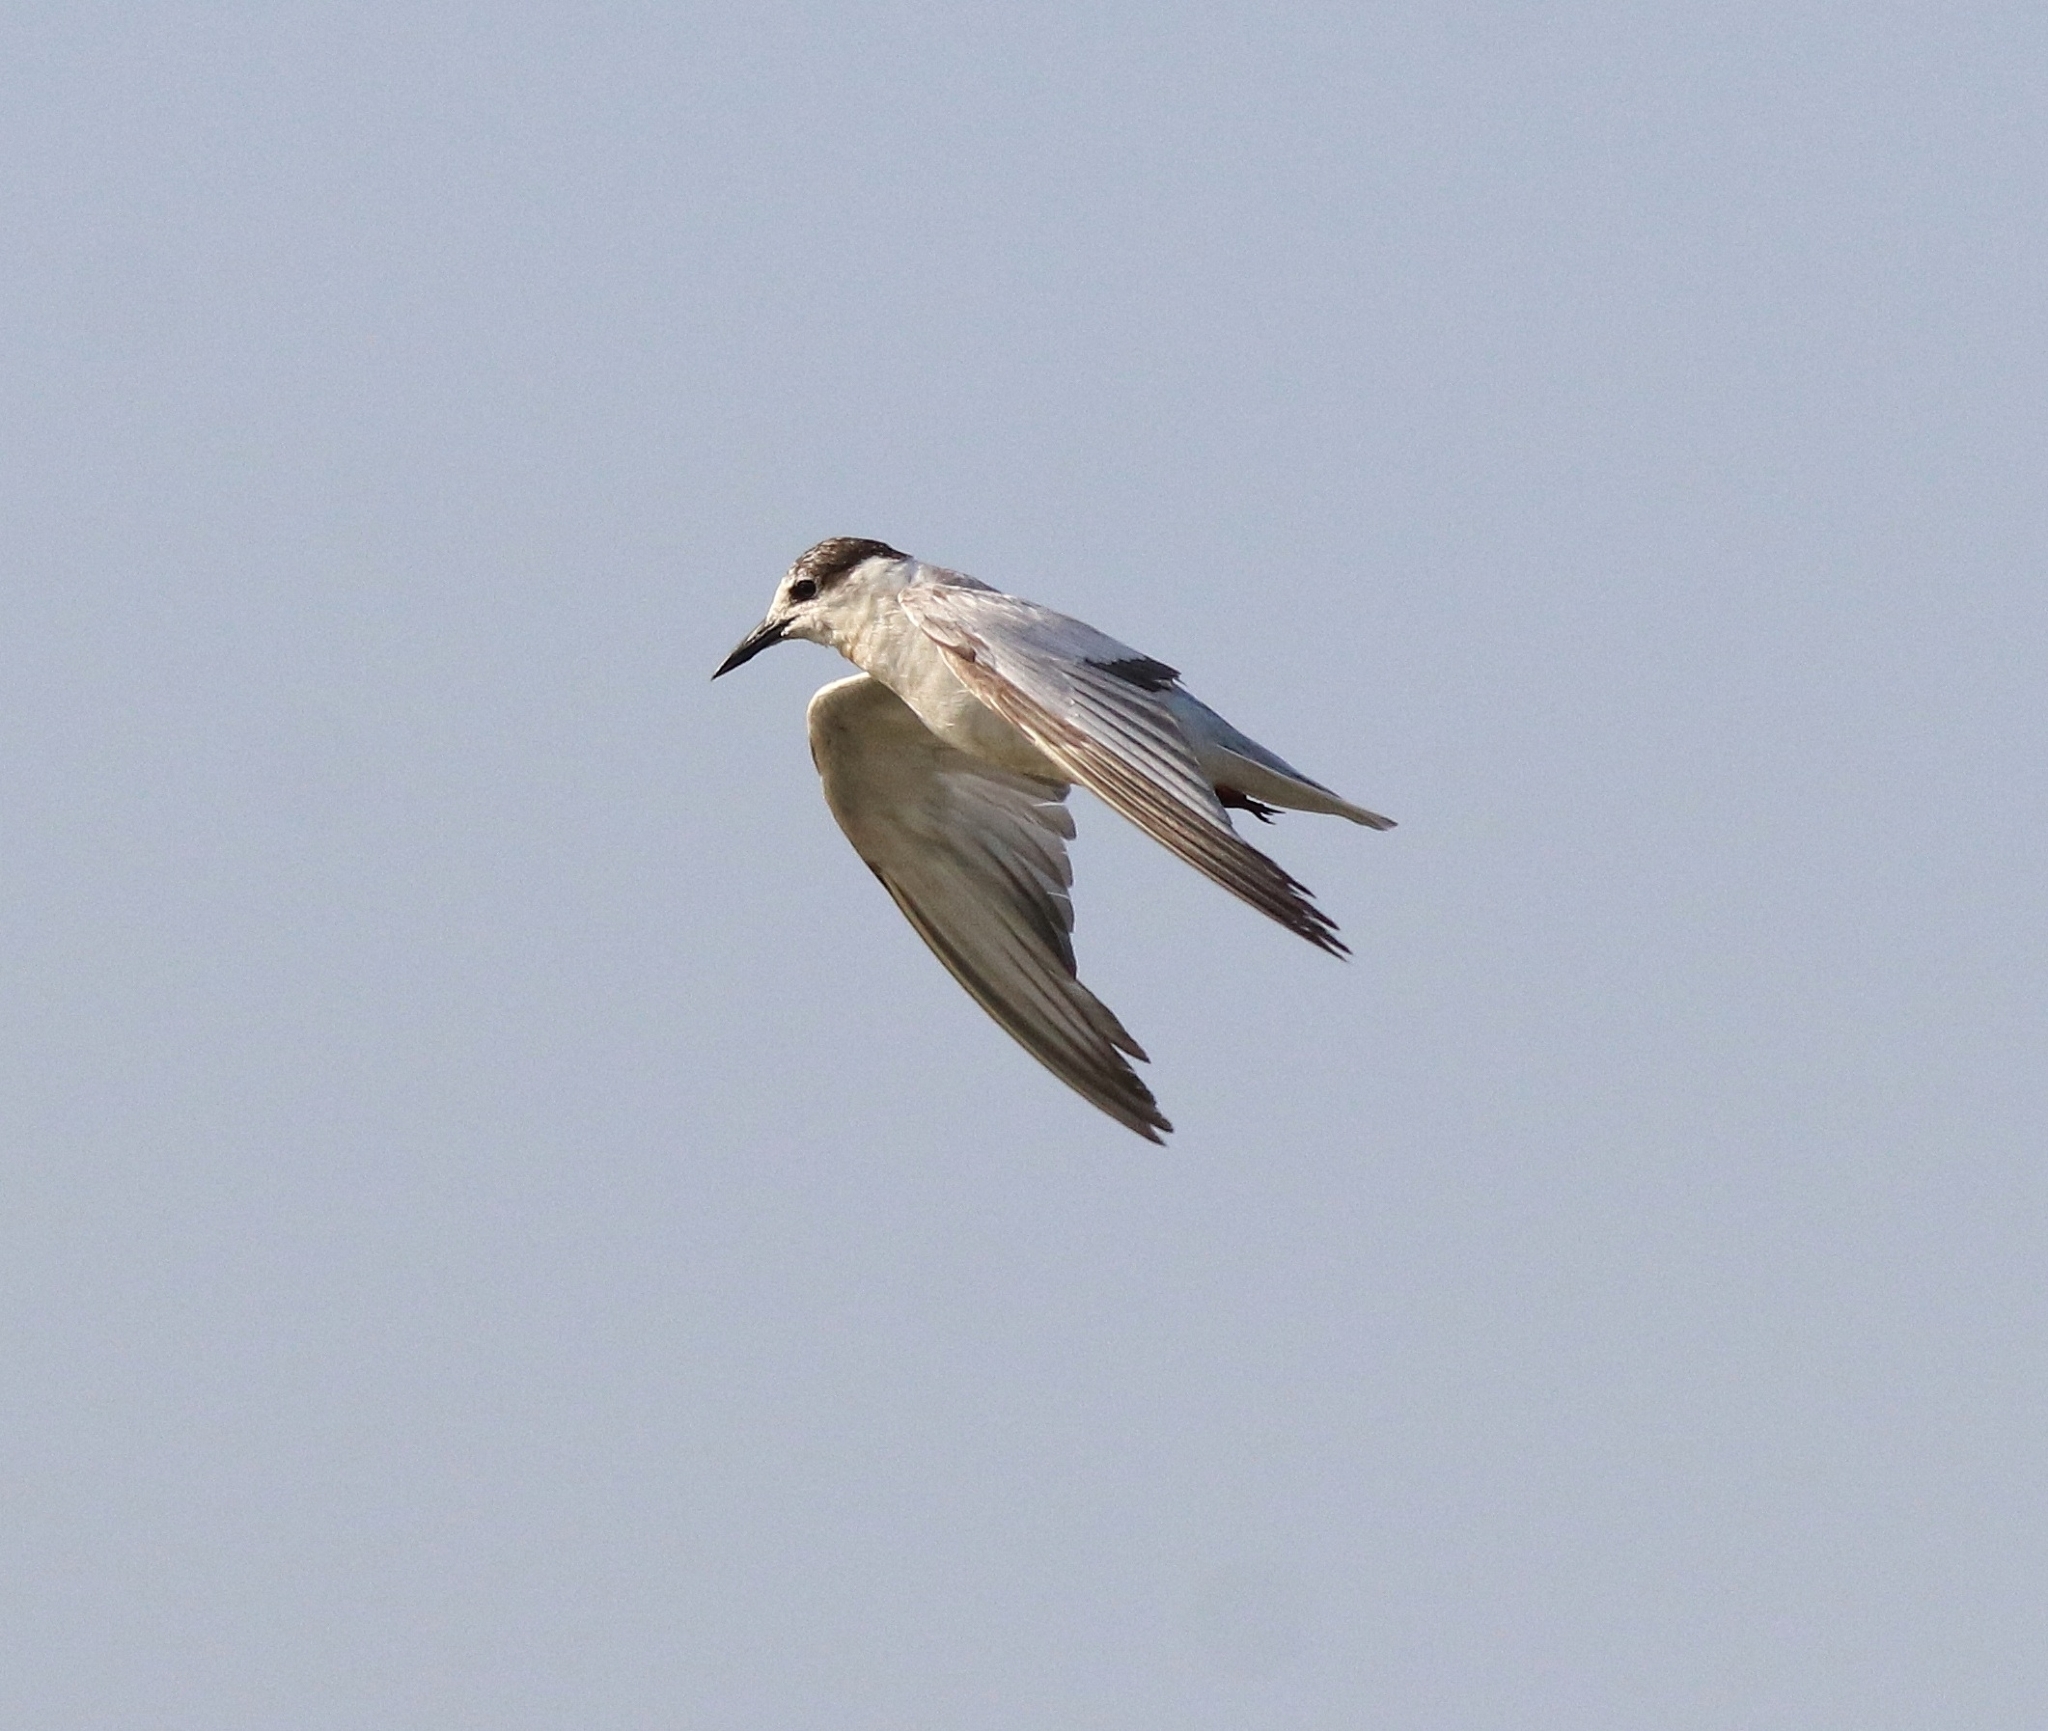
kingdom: Animalia
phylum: Chordata
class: Aves
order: Charadriiformes
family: Laridae
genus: Chlidonias
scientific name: Chlidonias hybrida
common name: Whiskered tern
